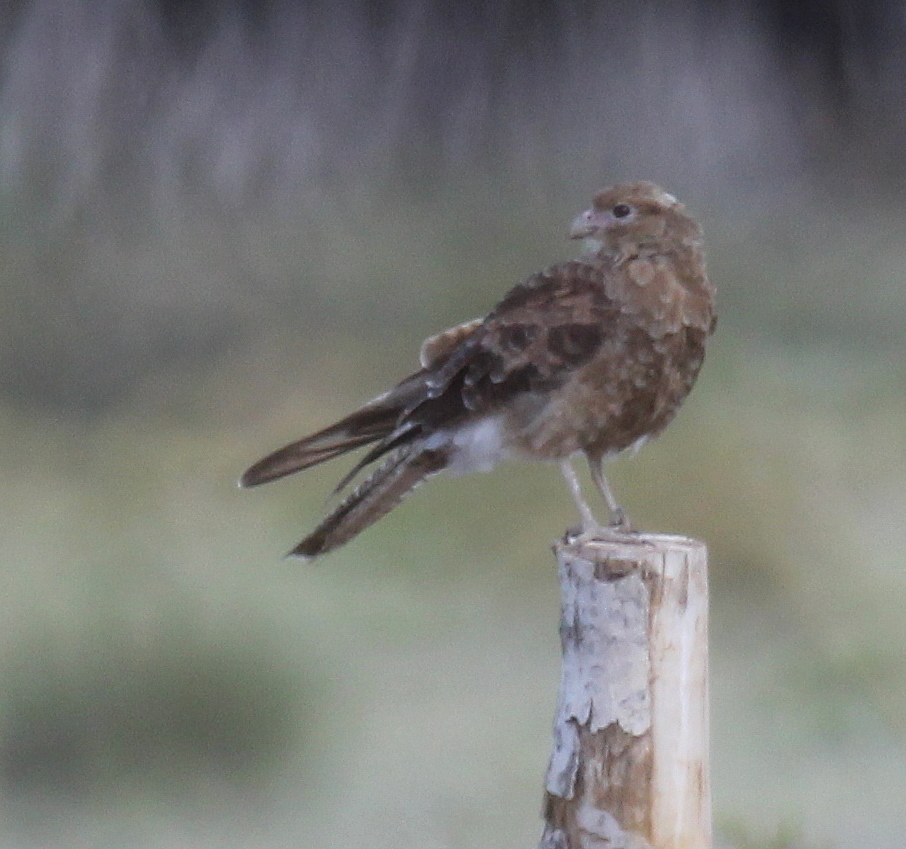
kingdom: Animalia
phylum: Chordata
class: Aves
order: Falconiformes
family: Falconidae
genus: Daptrius
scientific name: Daptrius
